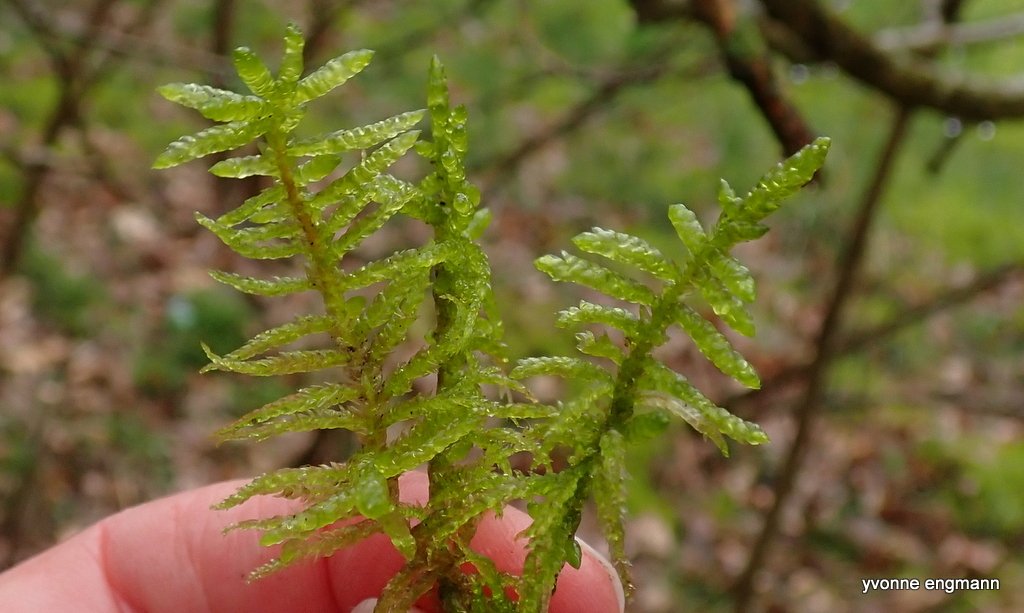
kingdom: Plantae
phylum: Bryophyta
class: Bryopsida
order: Hypnales
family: Brachytheciaceae
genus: Pseudoscleropodium
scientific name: Pseudoscleropodium purum
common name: Neat feather-moss
